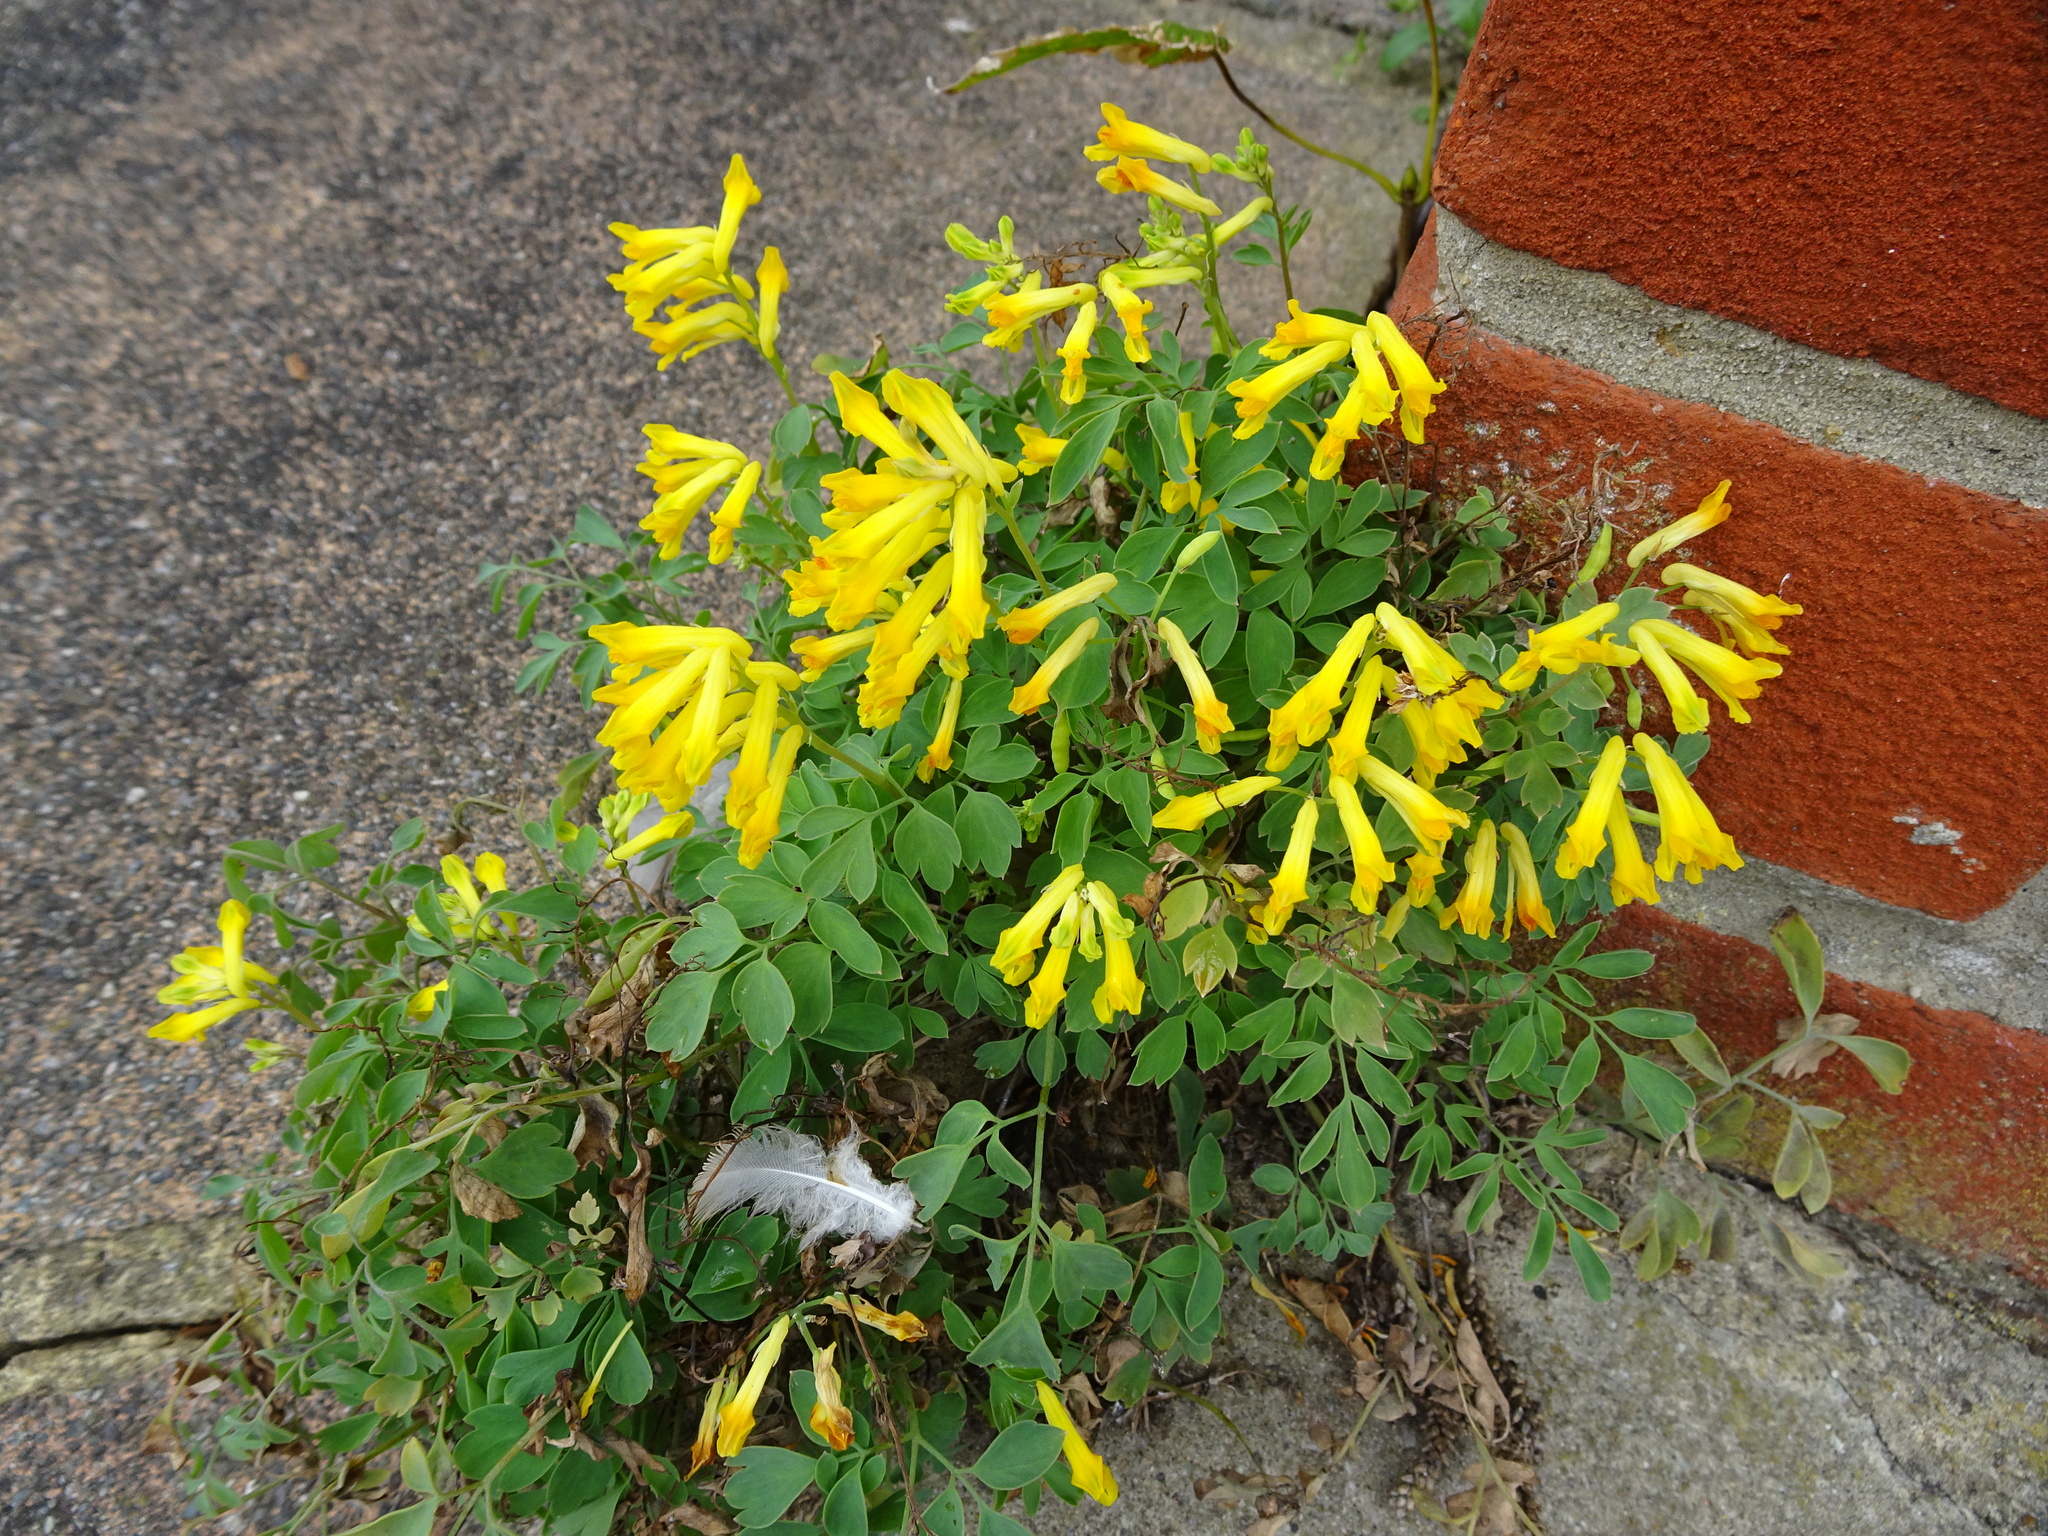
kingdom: Plantae
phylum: Tracheophyta
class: Magnoliopsida
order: Ranunculales
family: Papaveraceae
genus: Pseudofumaria
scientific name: Pseudofumaria lutea
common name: Yellow corydalis
